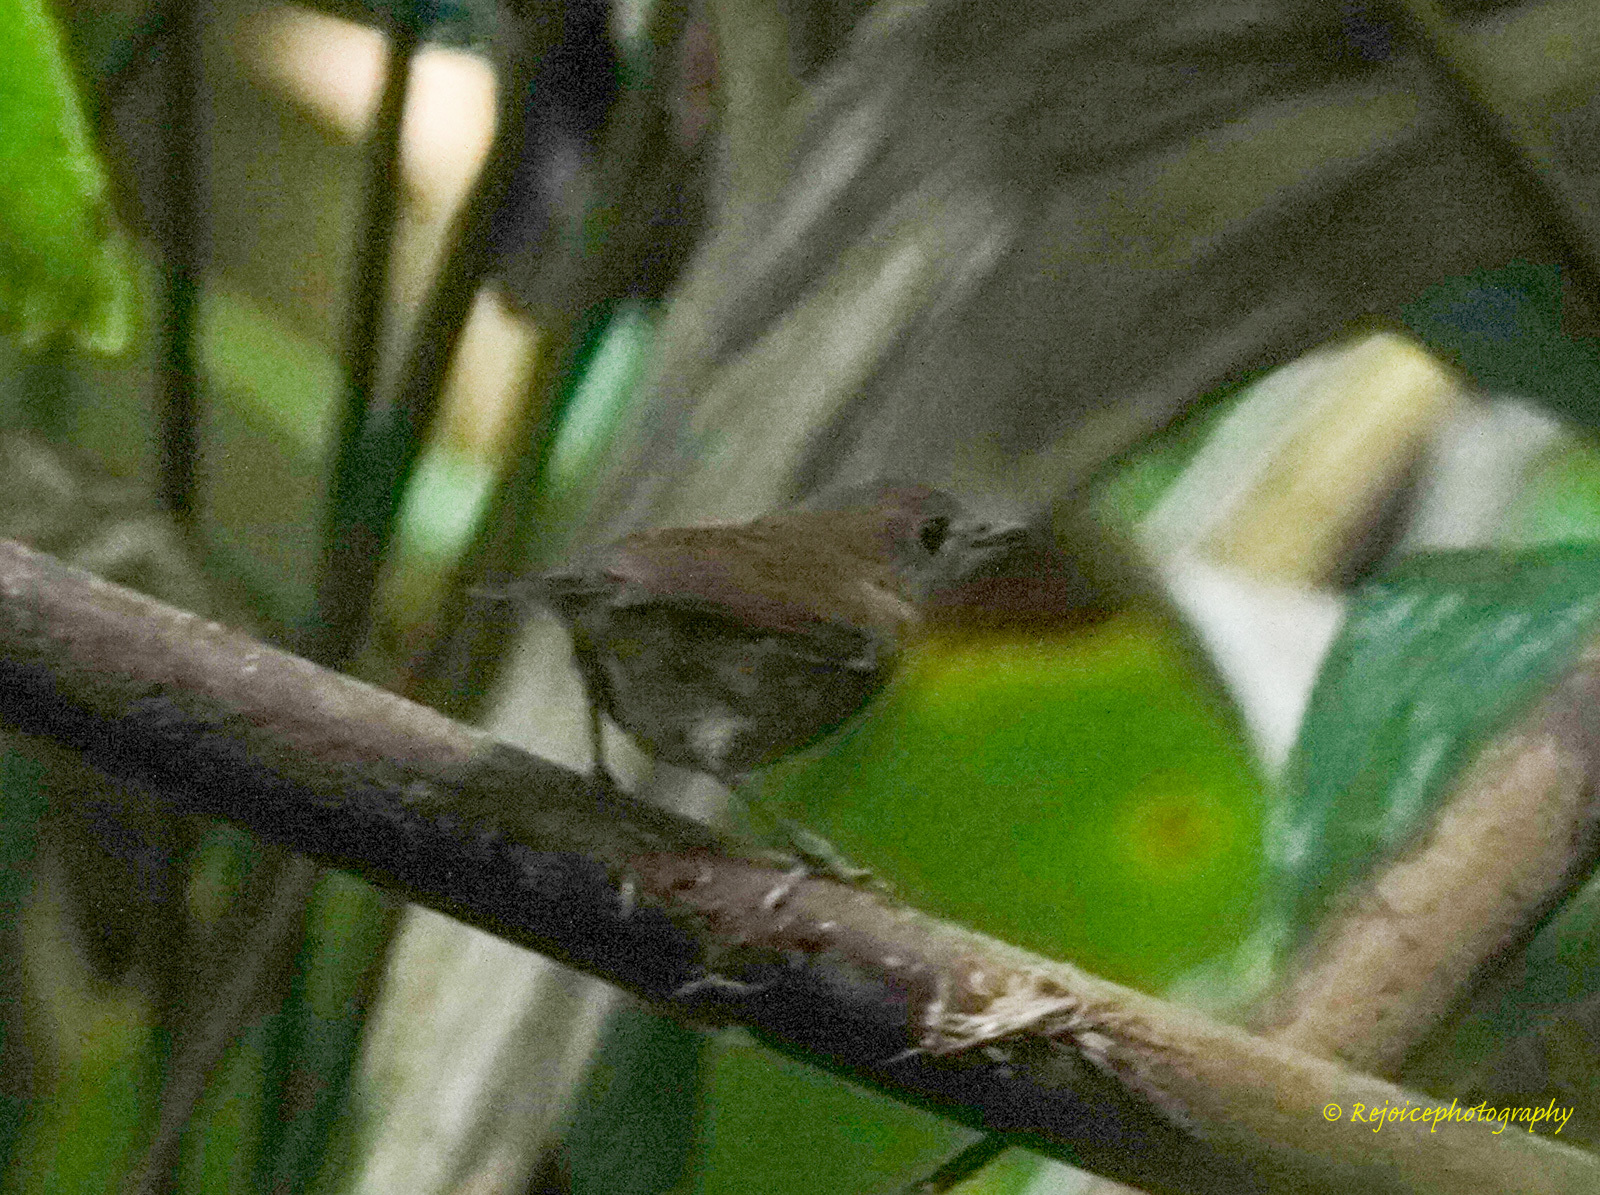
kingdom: Animalia
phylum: Chordata
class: Aves
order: Passeriformes
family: Muscicapidae
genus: Brachypteryx
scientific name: Brachypteryx leucophris
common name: Lesser shortwing
